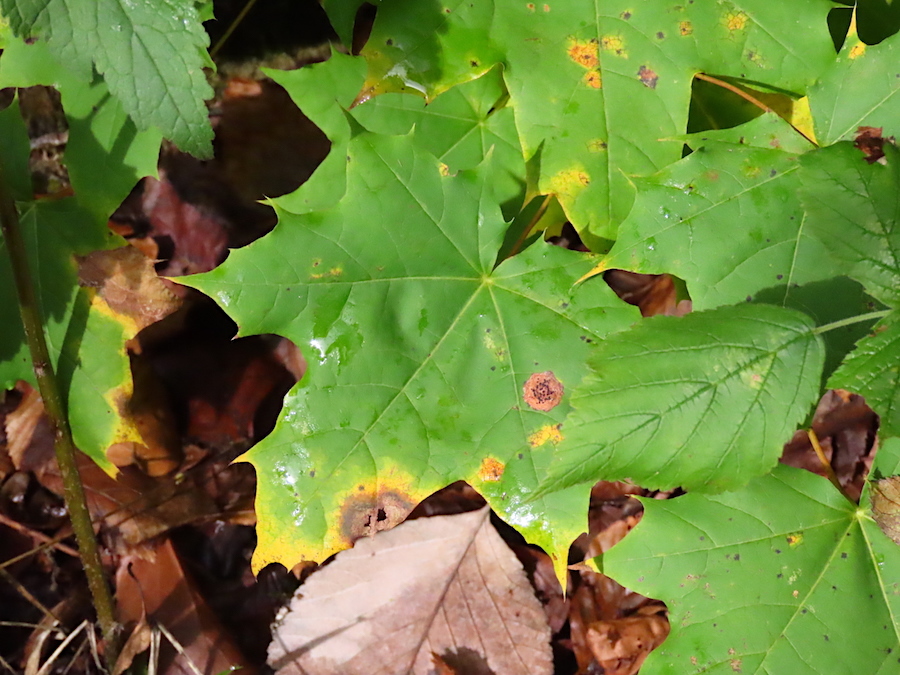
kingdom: Plantae
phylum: Tracheophyta
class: Magnoliopsida
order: Sapindales
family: Sapindaceae
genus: Acer
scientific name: Acer platanoides
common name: Norway maple
